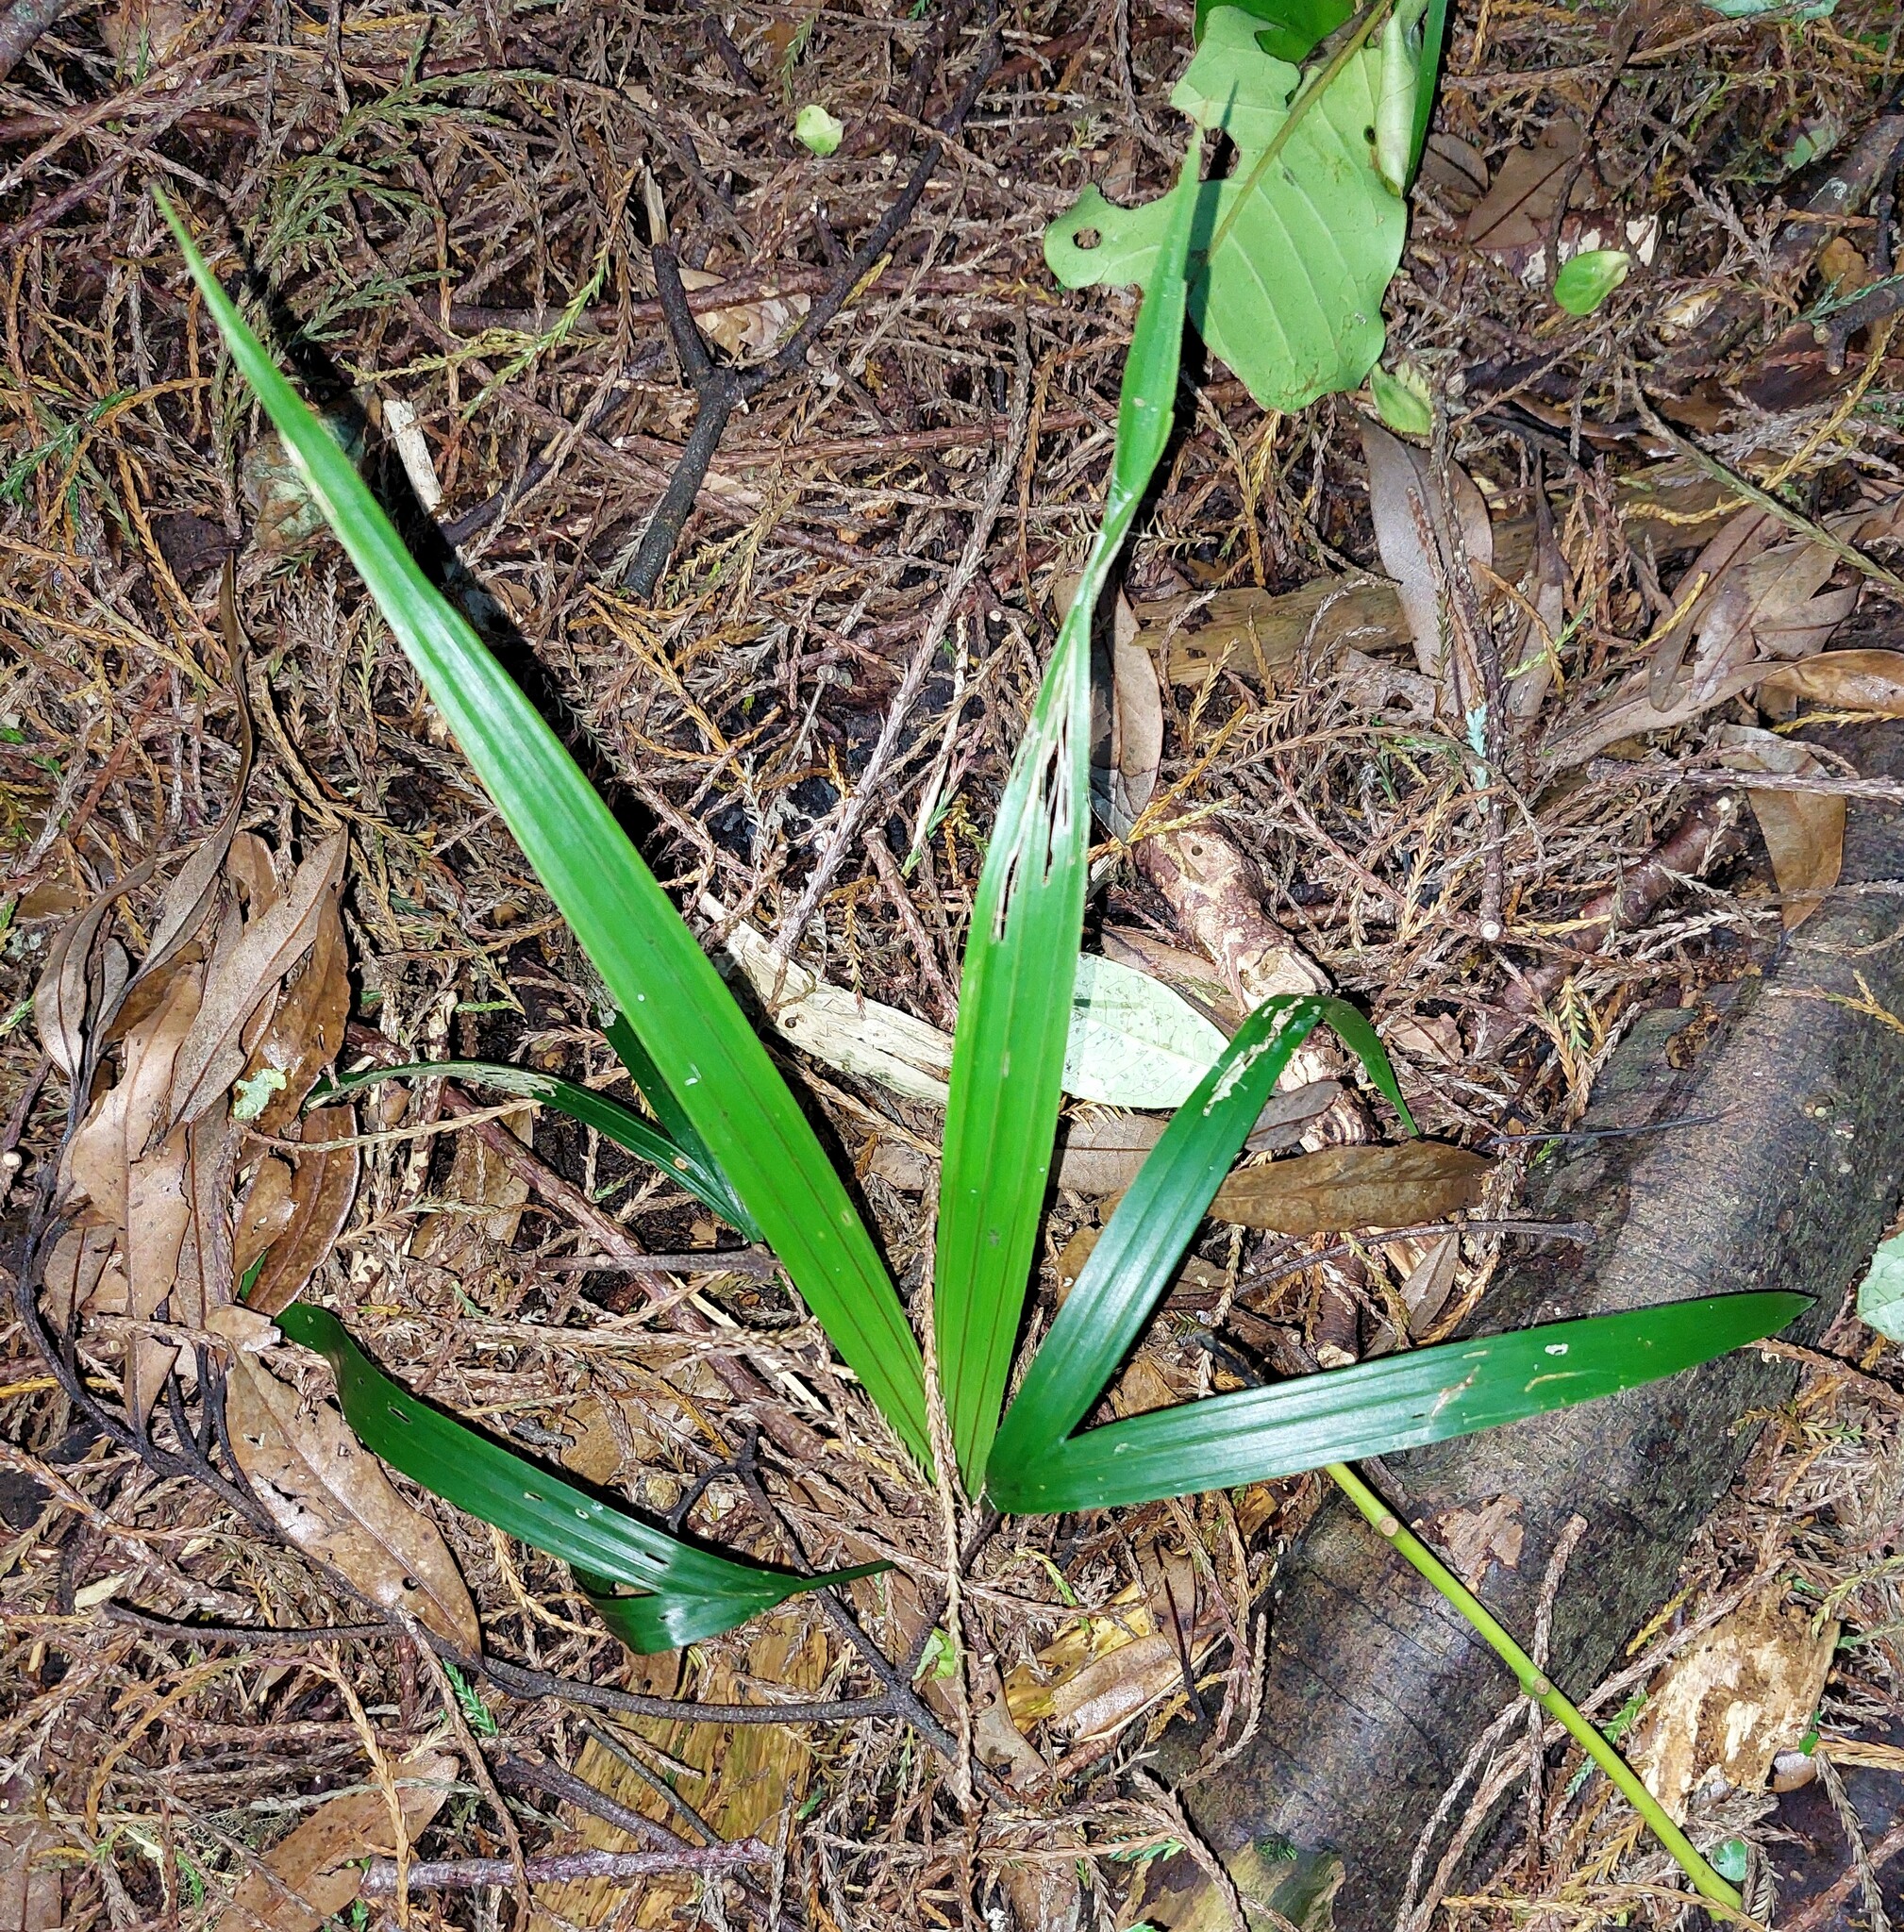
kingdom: Plantae
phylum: Tracheophyta
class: Liliopsida
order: Arecales
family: Arecaceae
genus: Rhopalostylis
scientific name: Rhopalostylis sapida
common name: Feather-duster palm
